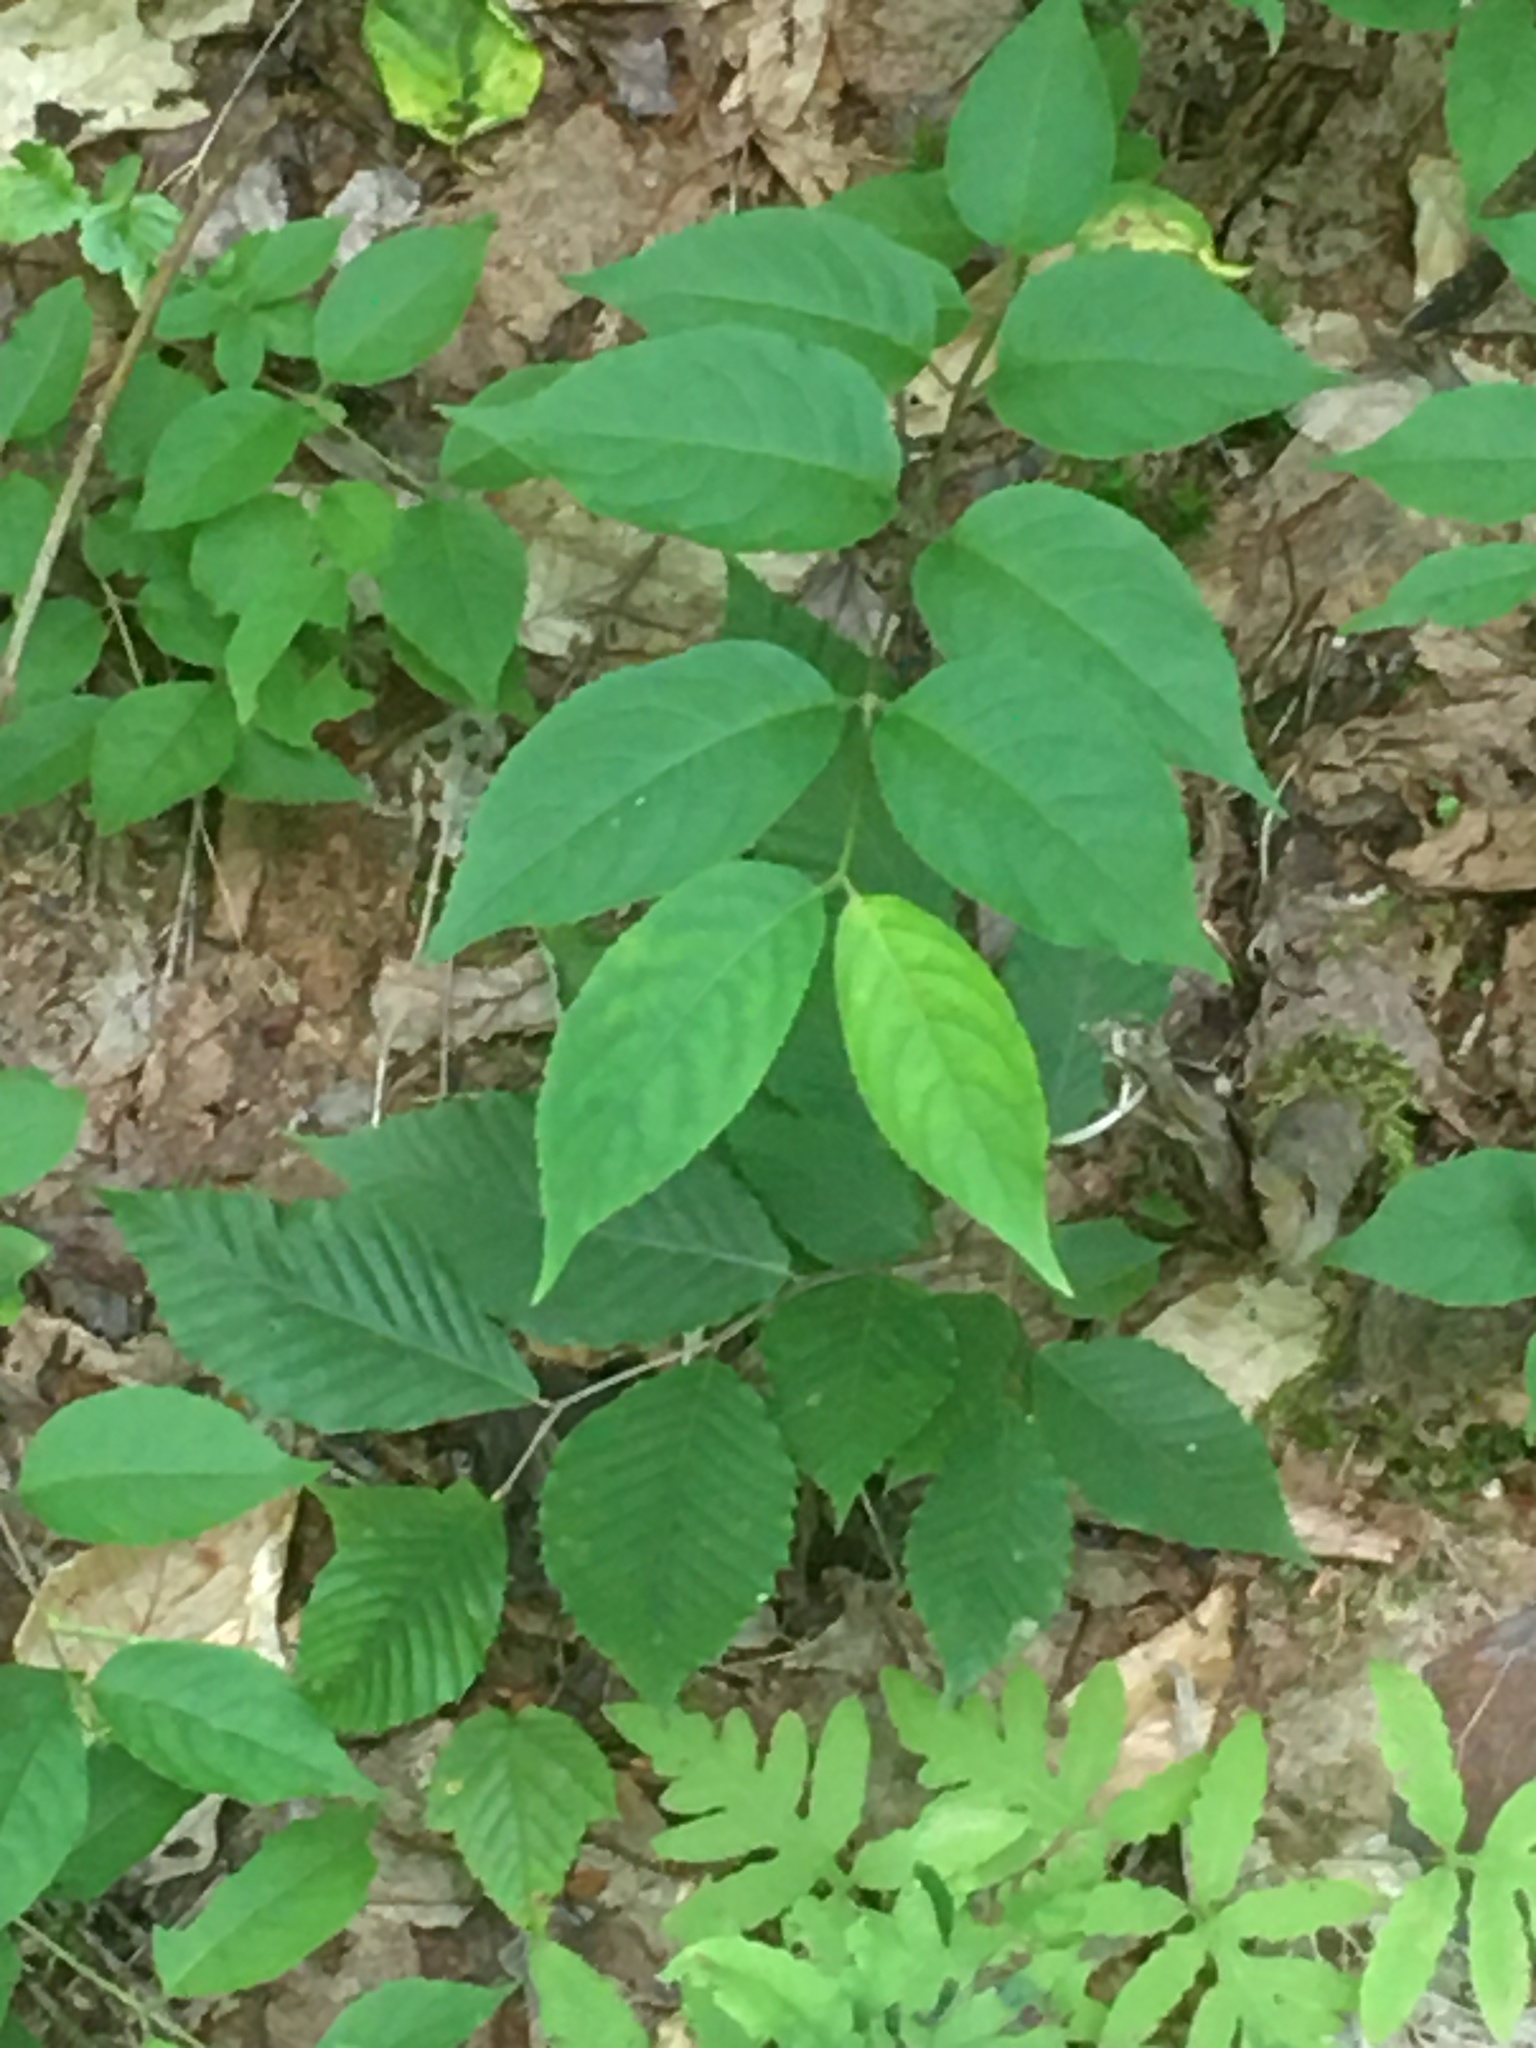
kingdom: Plantae
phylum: Tracheophyta
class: Magnoliopsida
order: Dipsacales
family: Caprifoliaceae
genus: Diervilla
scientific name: Diervilla lonicera
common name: Bush-honeysuckle
